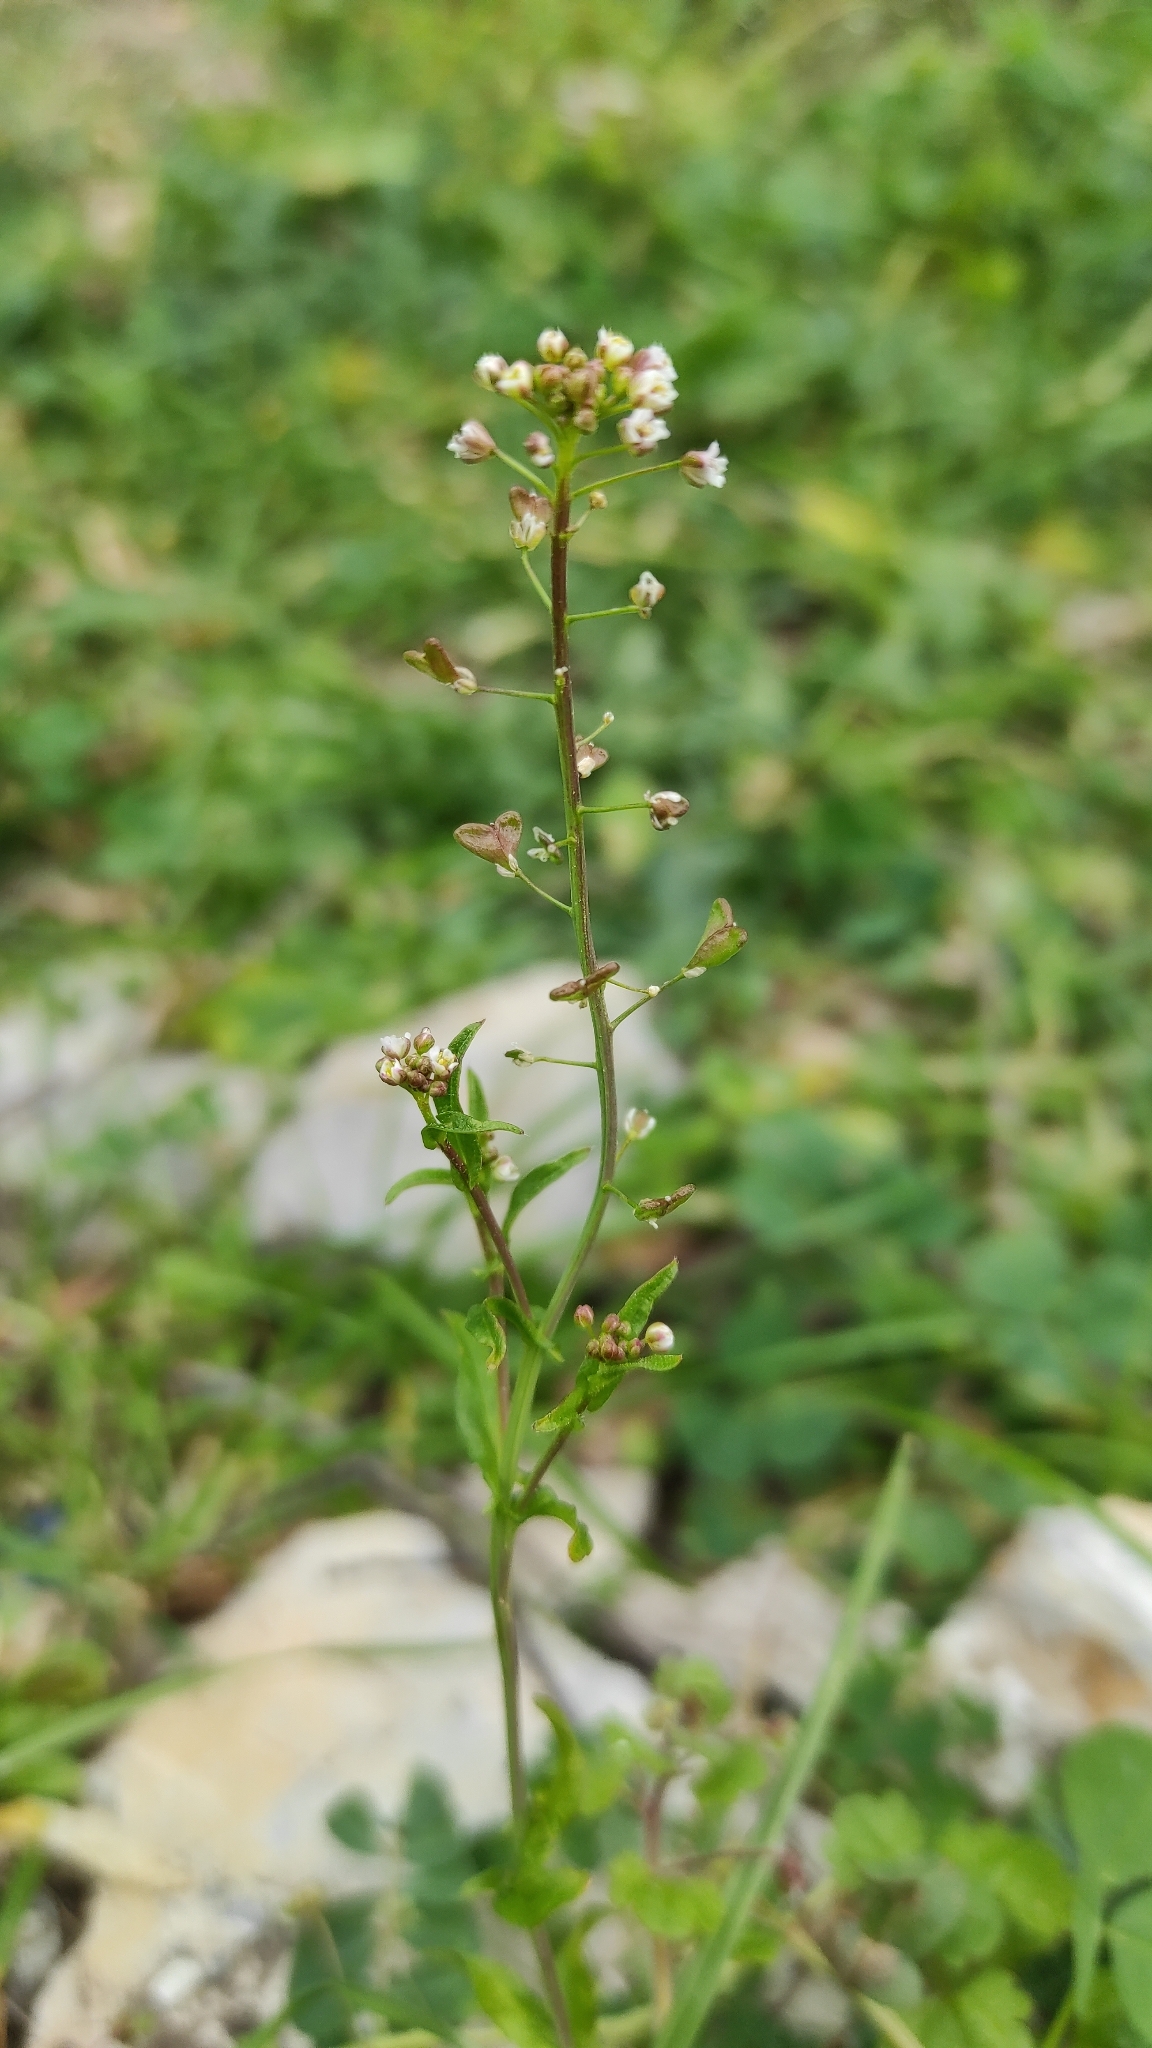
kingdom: Plantae
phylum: Tracheophyta
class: Magnoliopsida
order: Brassicales
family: Brassicaceae
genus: Capsella
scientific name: Capsella bursa-pastoris
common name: Shepherd's purse
